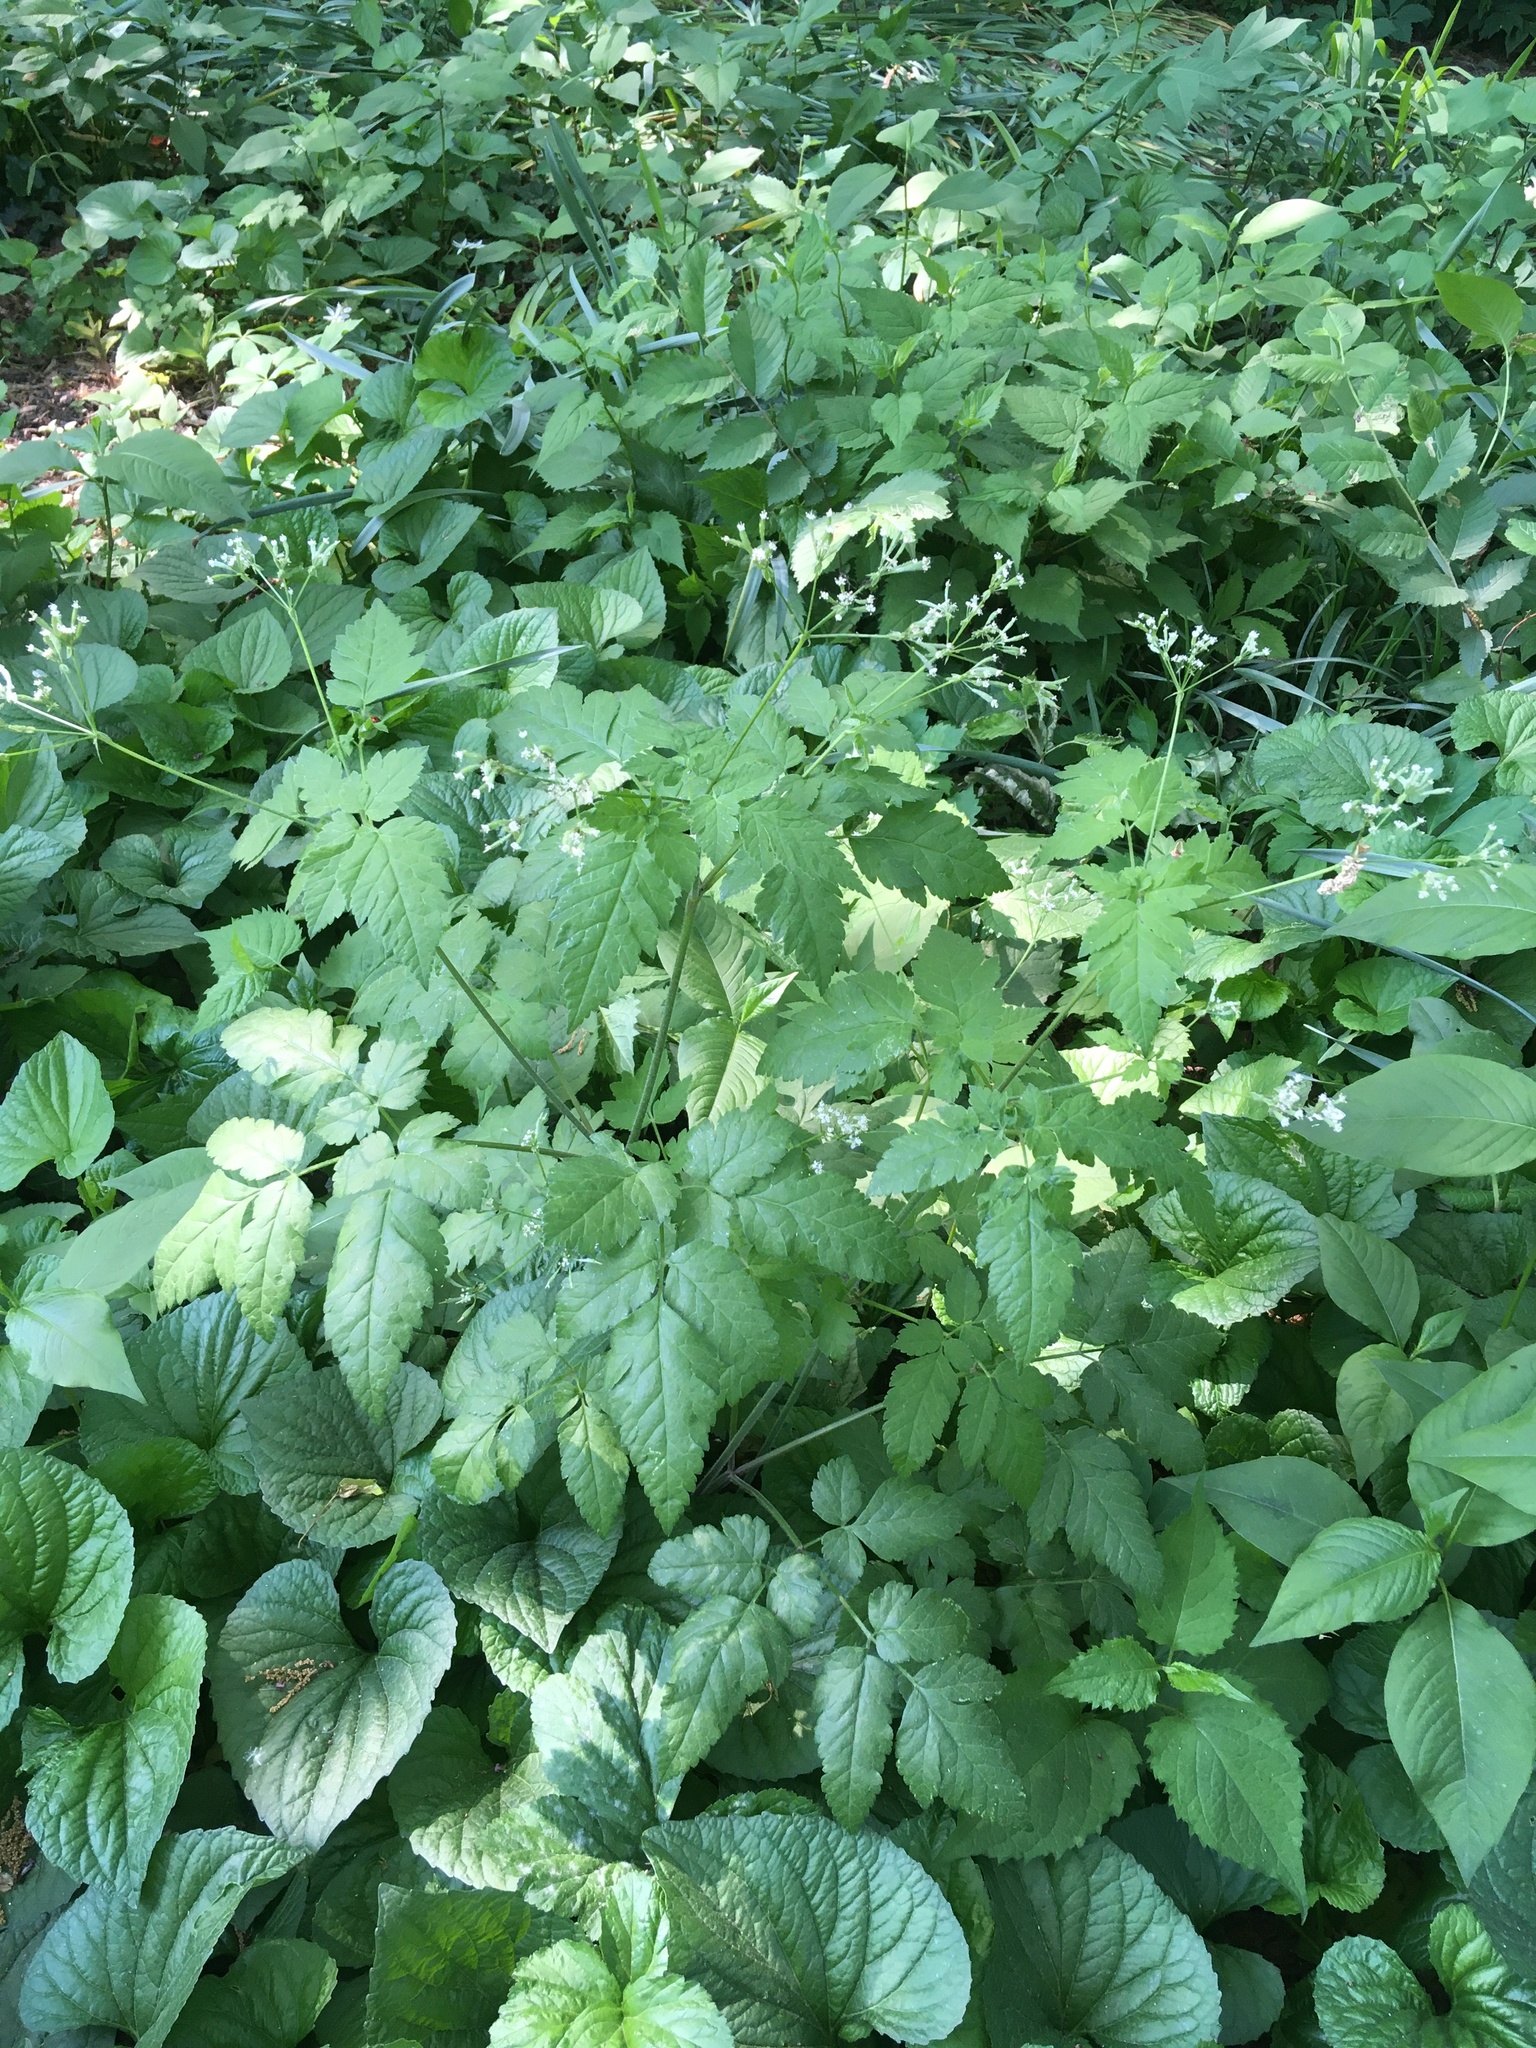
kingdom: Plantae
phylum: Tracheophyta
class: Magnoliopsida
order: Apiales
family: Apiaceae
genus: Cryptotaenia
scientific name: Cryptotaenia canadensis
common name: Honewort
